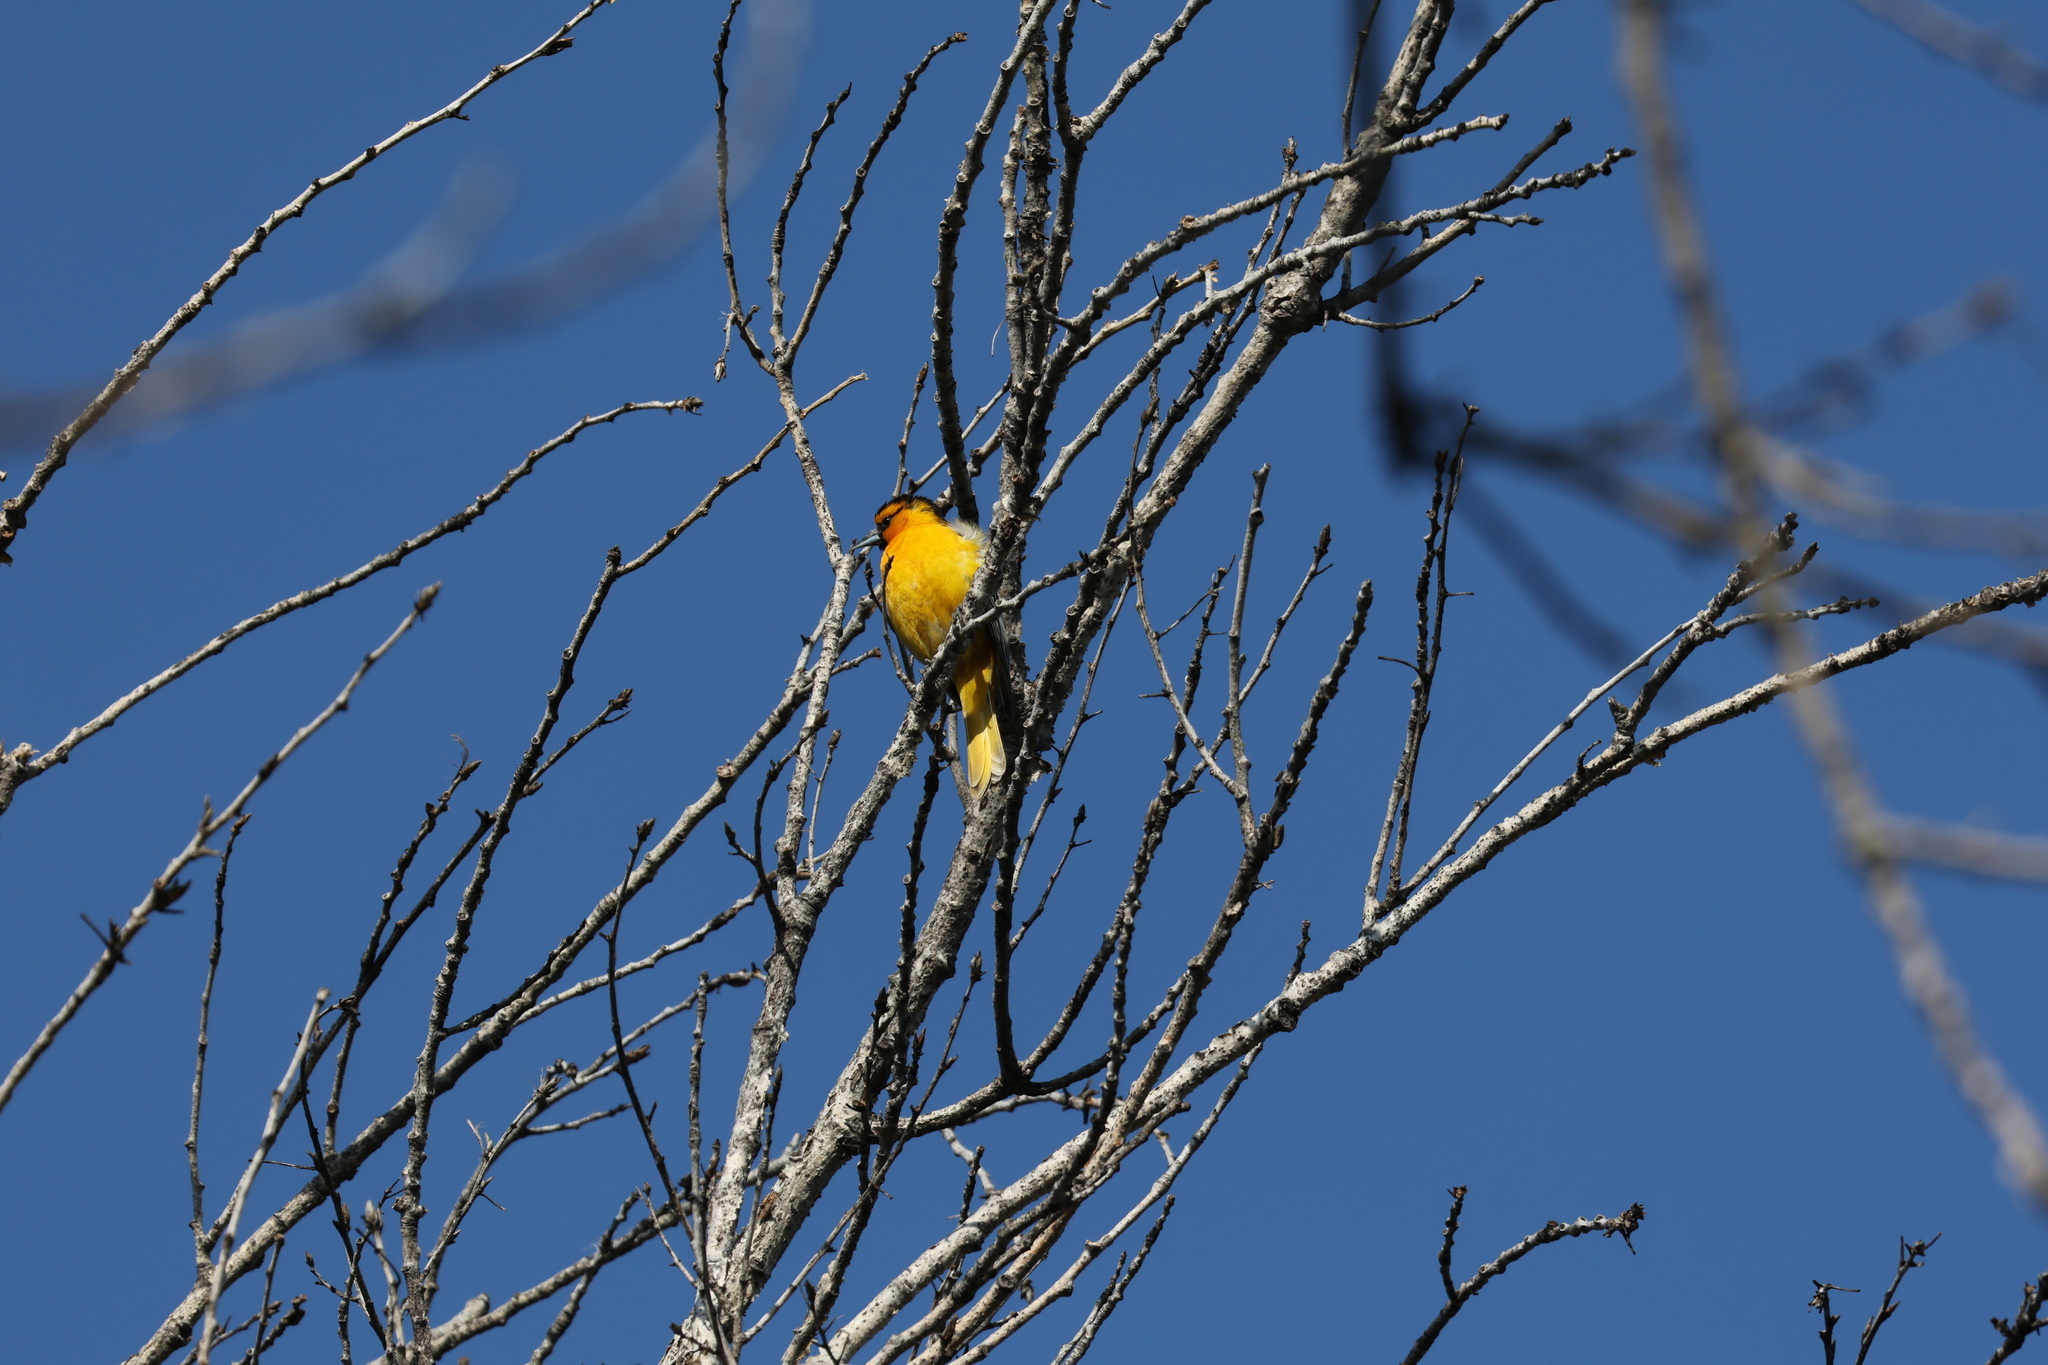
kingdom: Animalia
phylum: Chordata
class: Aves
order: Passeriformes
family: Icteridae
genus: Icterus
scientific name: Icterus bullockii
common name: Bullock's oriole
